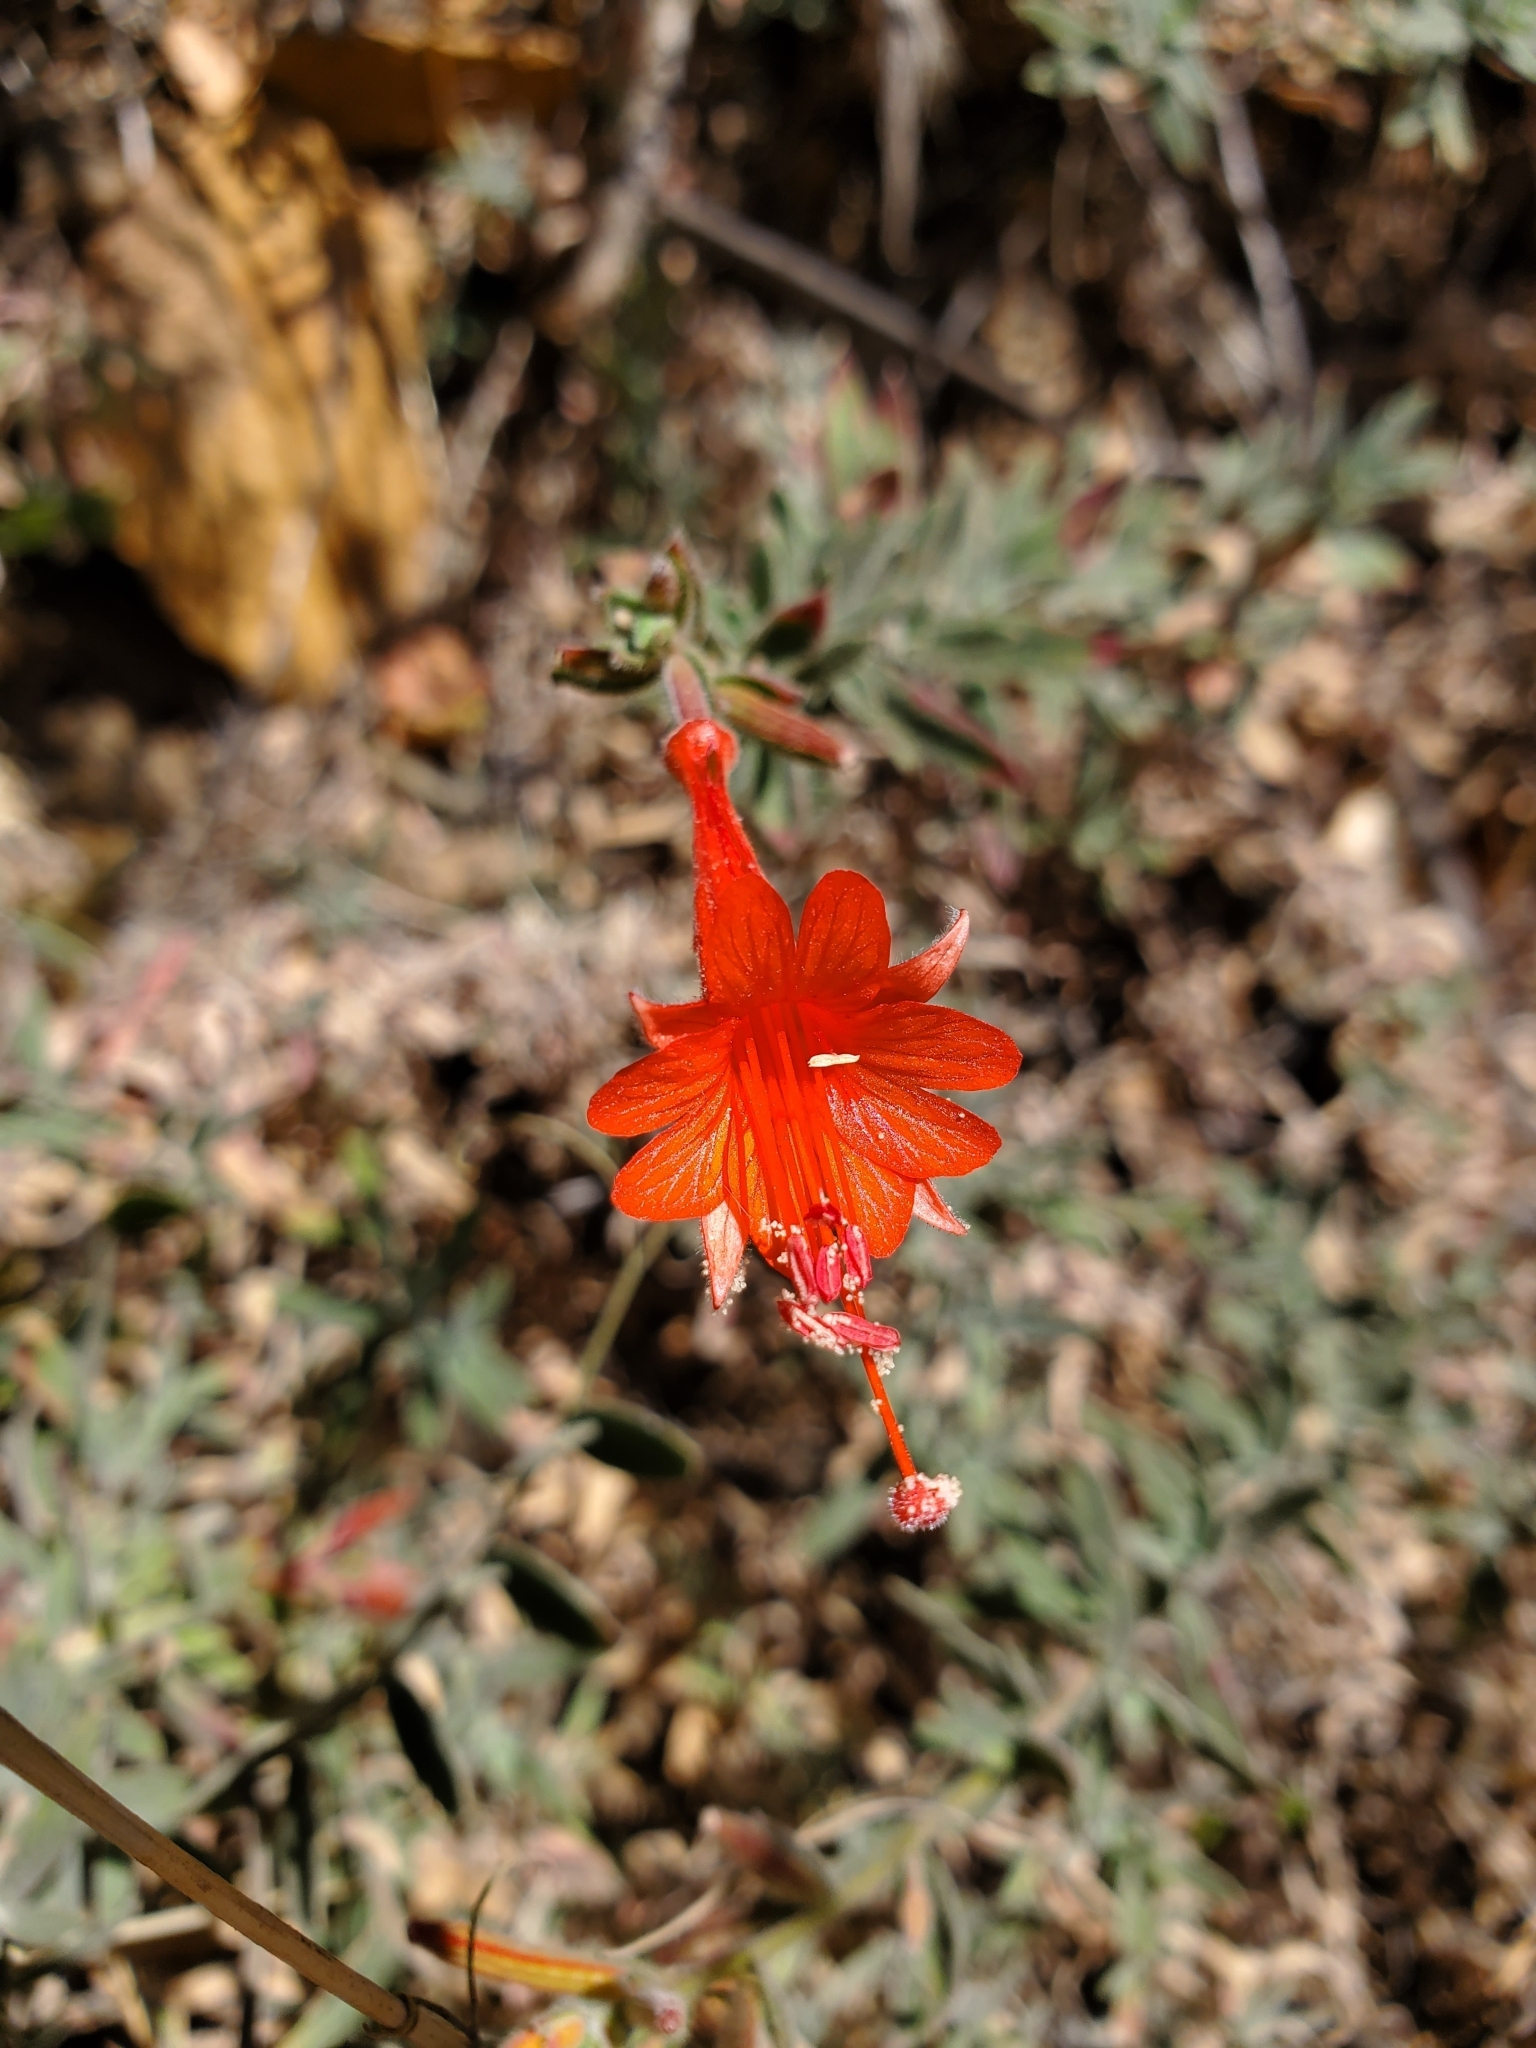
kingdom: Plantae
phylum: Tracheophyta
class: Magnoliopsida
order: Myrtales
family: Onagraceae
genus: Epilobium
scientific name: Epilobium canum
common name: California-fuchsia
